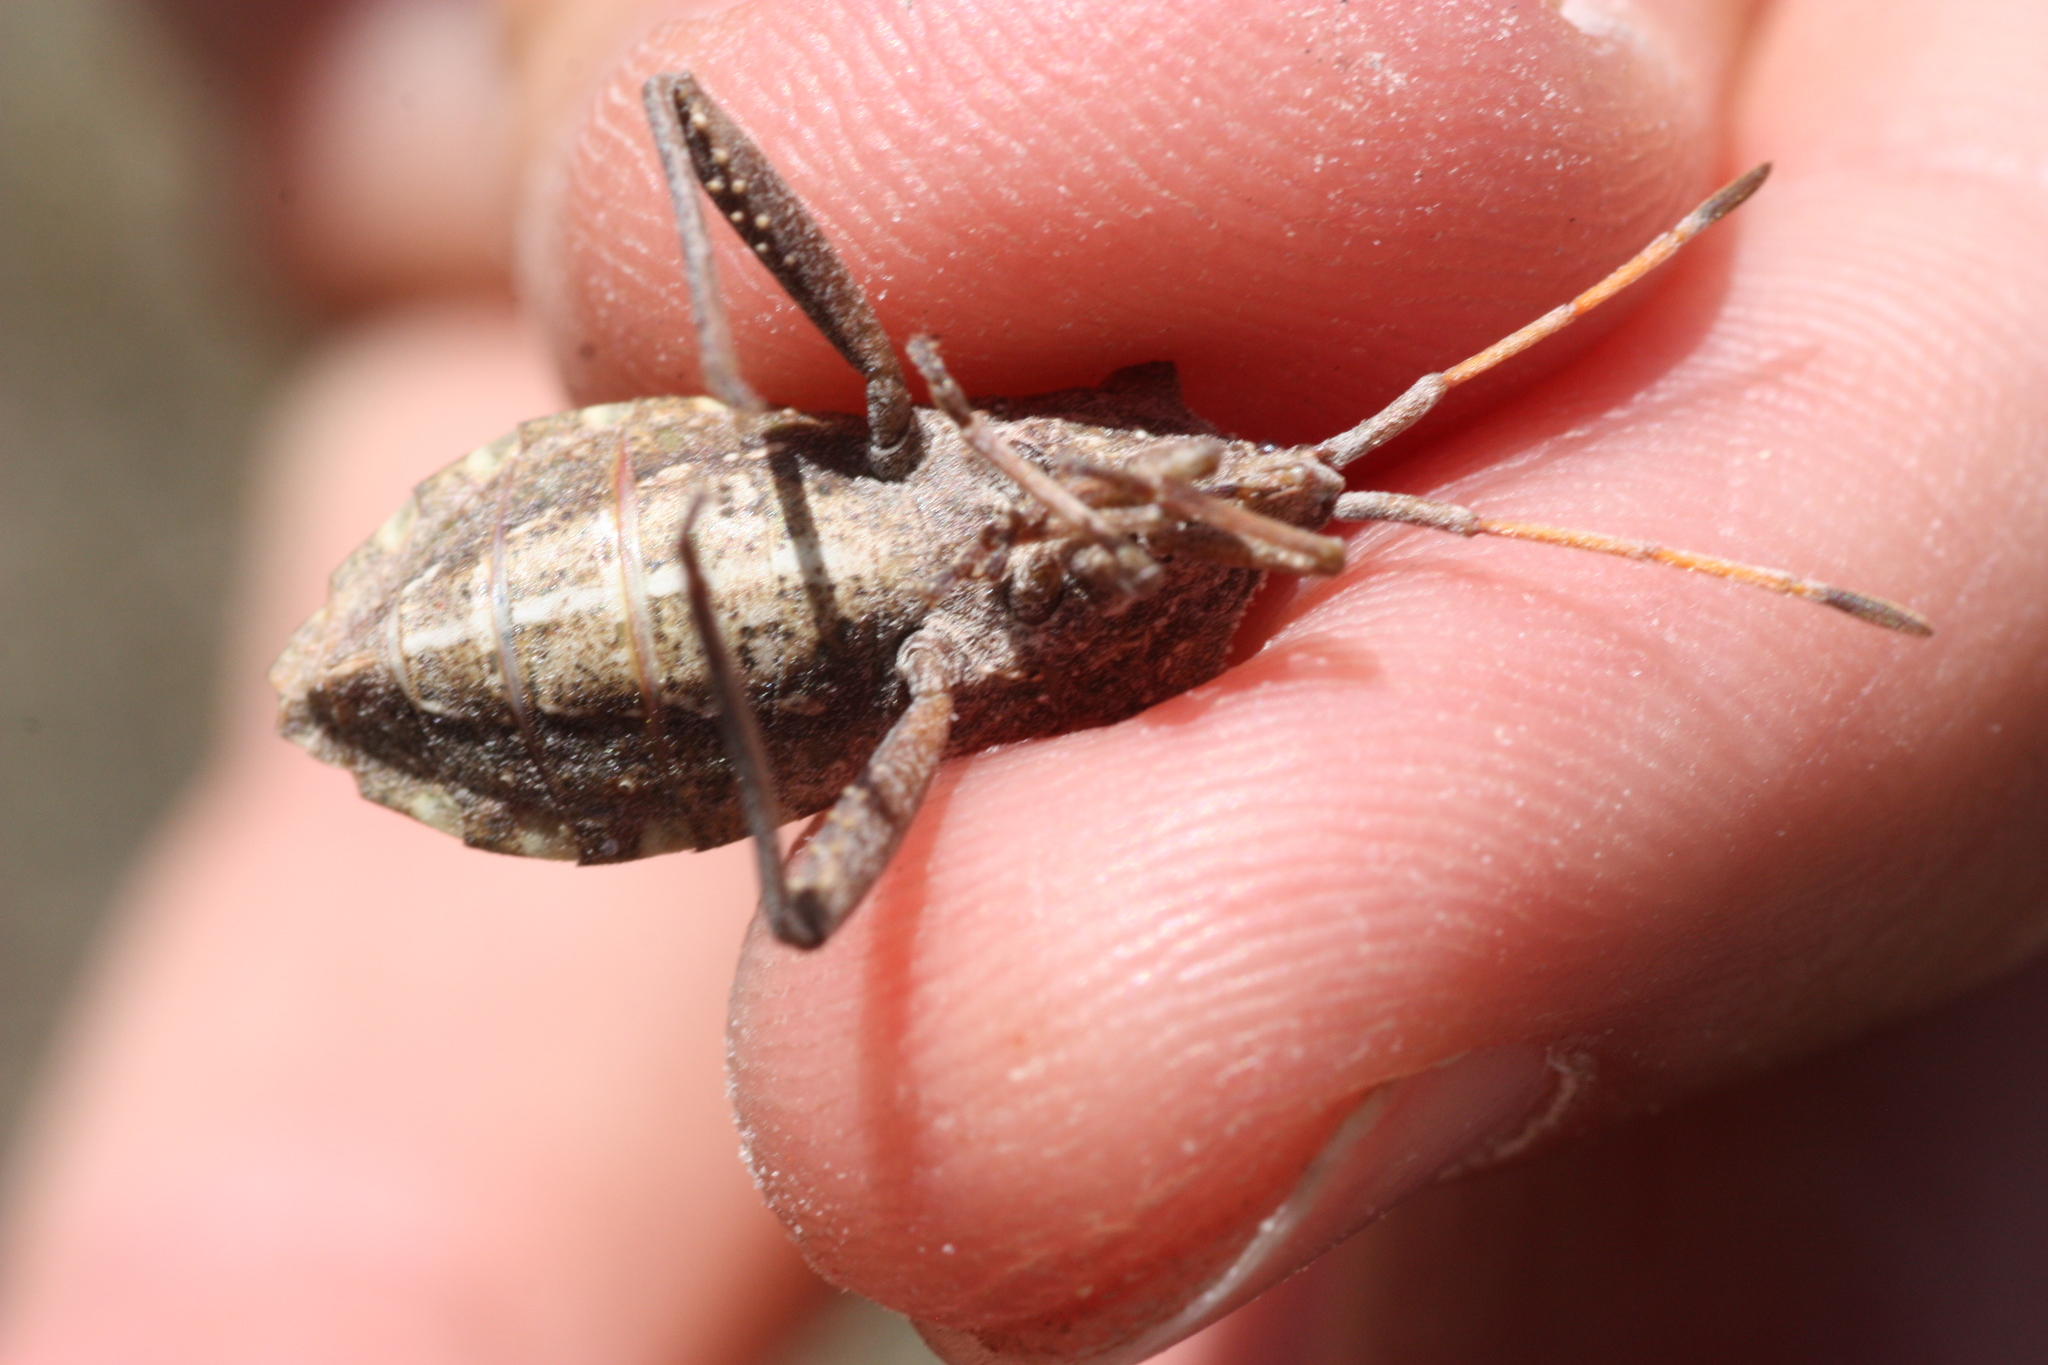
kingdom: Animalia
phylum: Arthropoda
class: Insecta
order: Hemiptera
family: Coreidae
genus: Mozena
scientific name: Mozena obtusa
